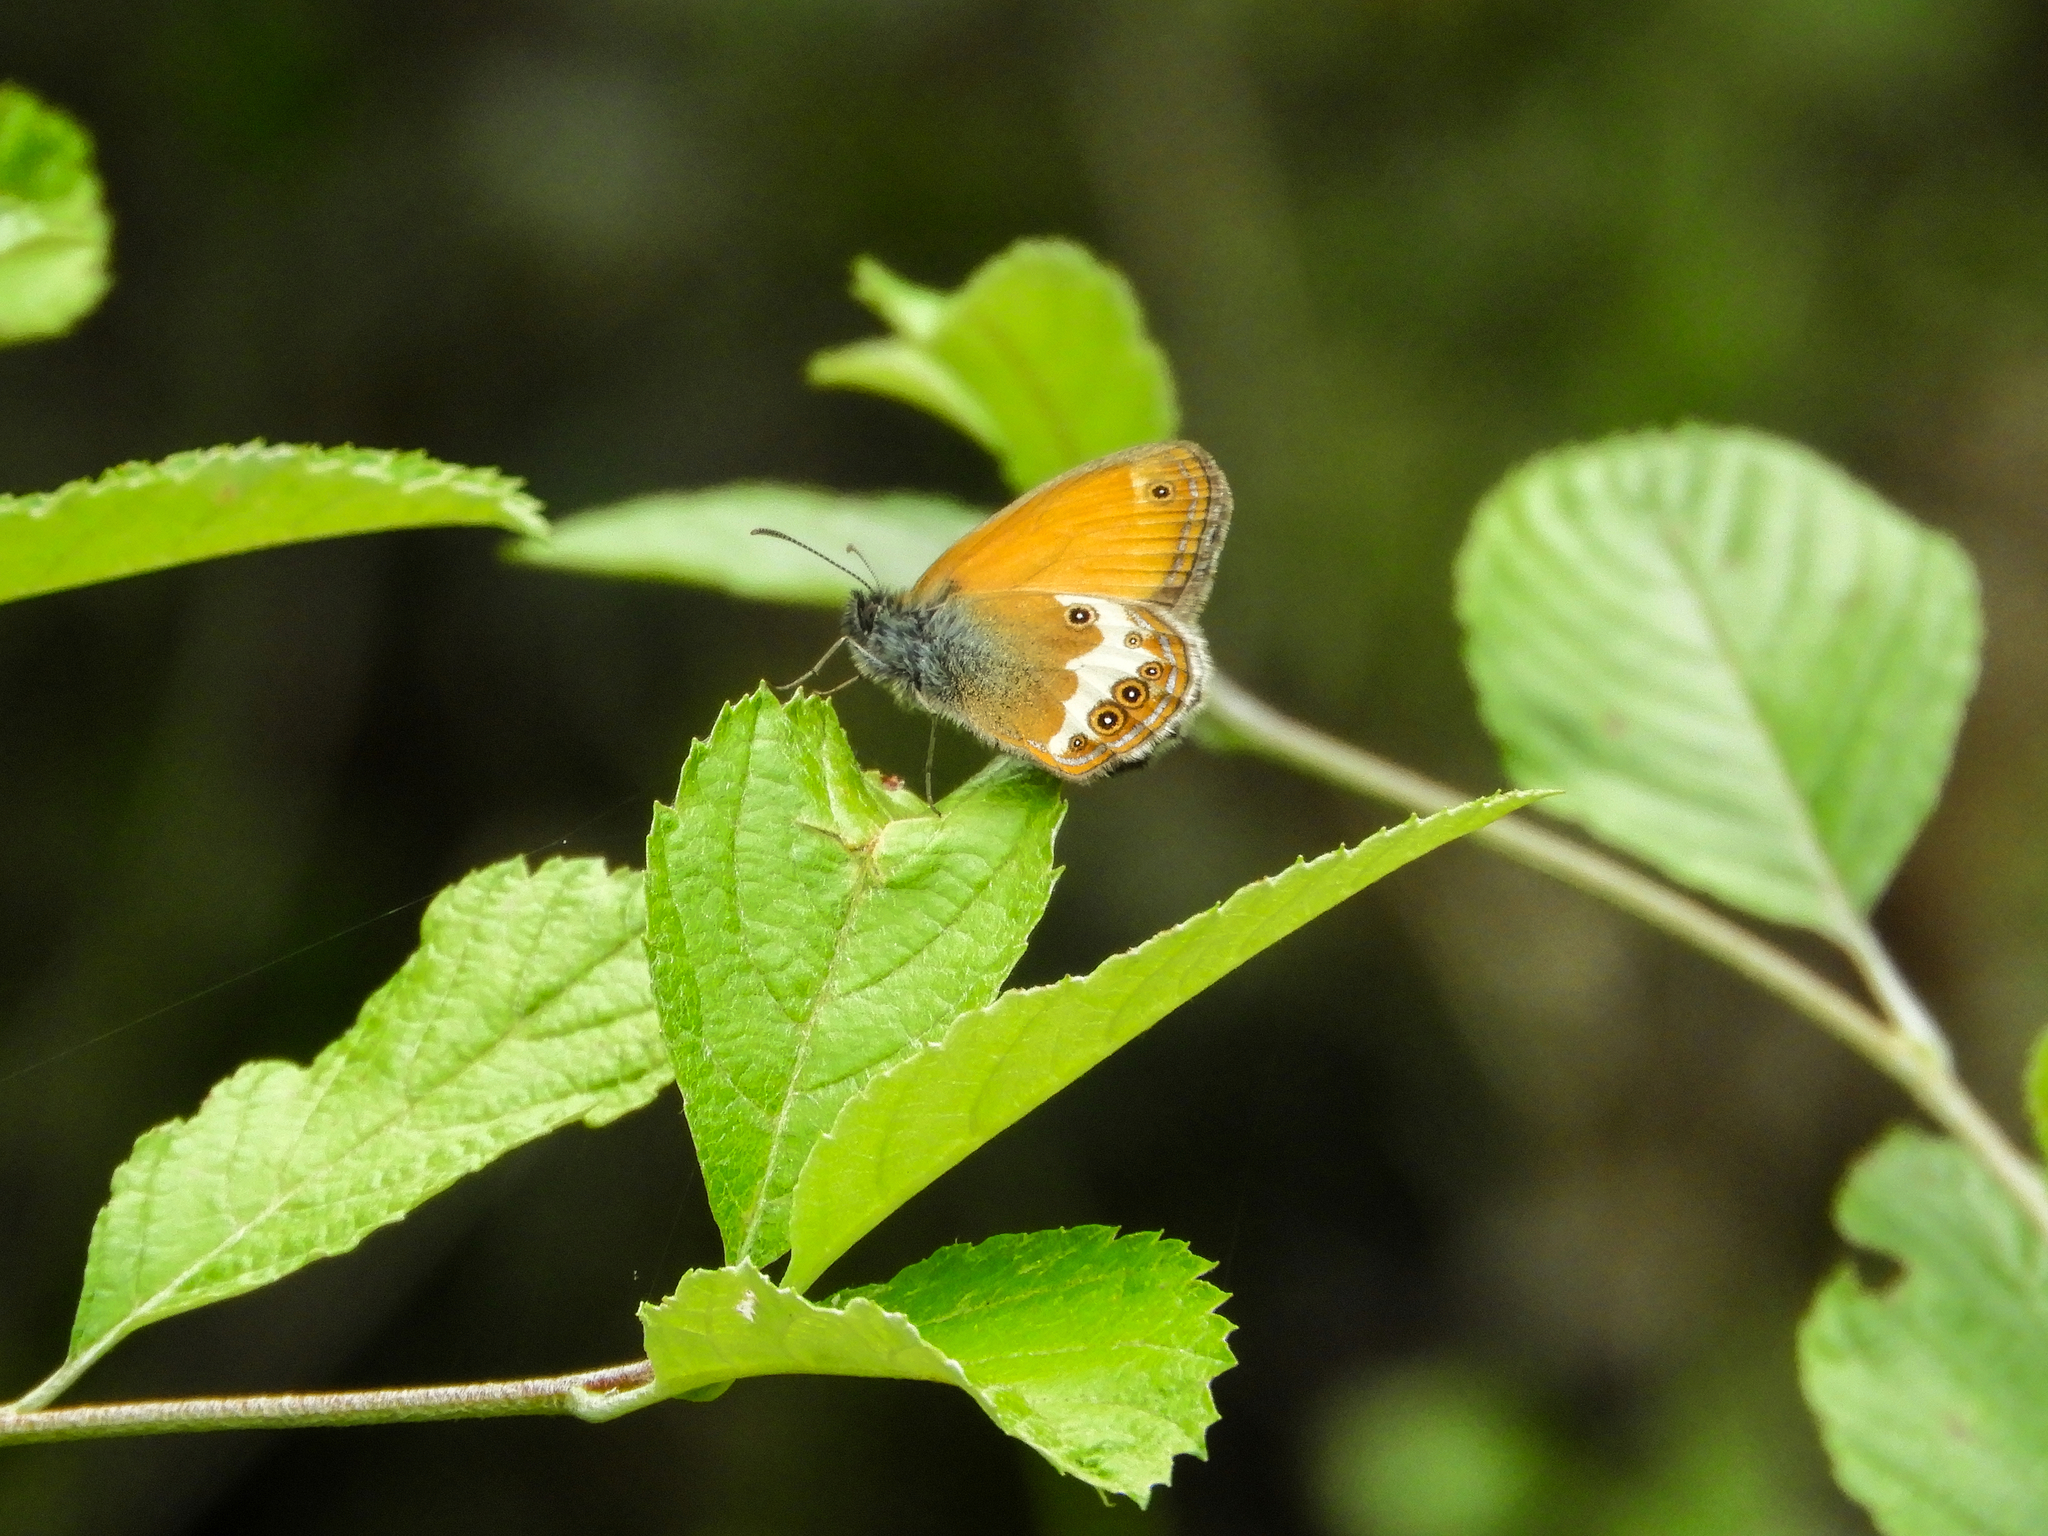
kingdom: Animalia
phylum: Arthropoda
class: Insecta
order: Lepidoptera
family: Nymphalidae
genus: Coenonympha
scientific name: Coenonympha arcania
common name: Pearly heath
